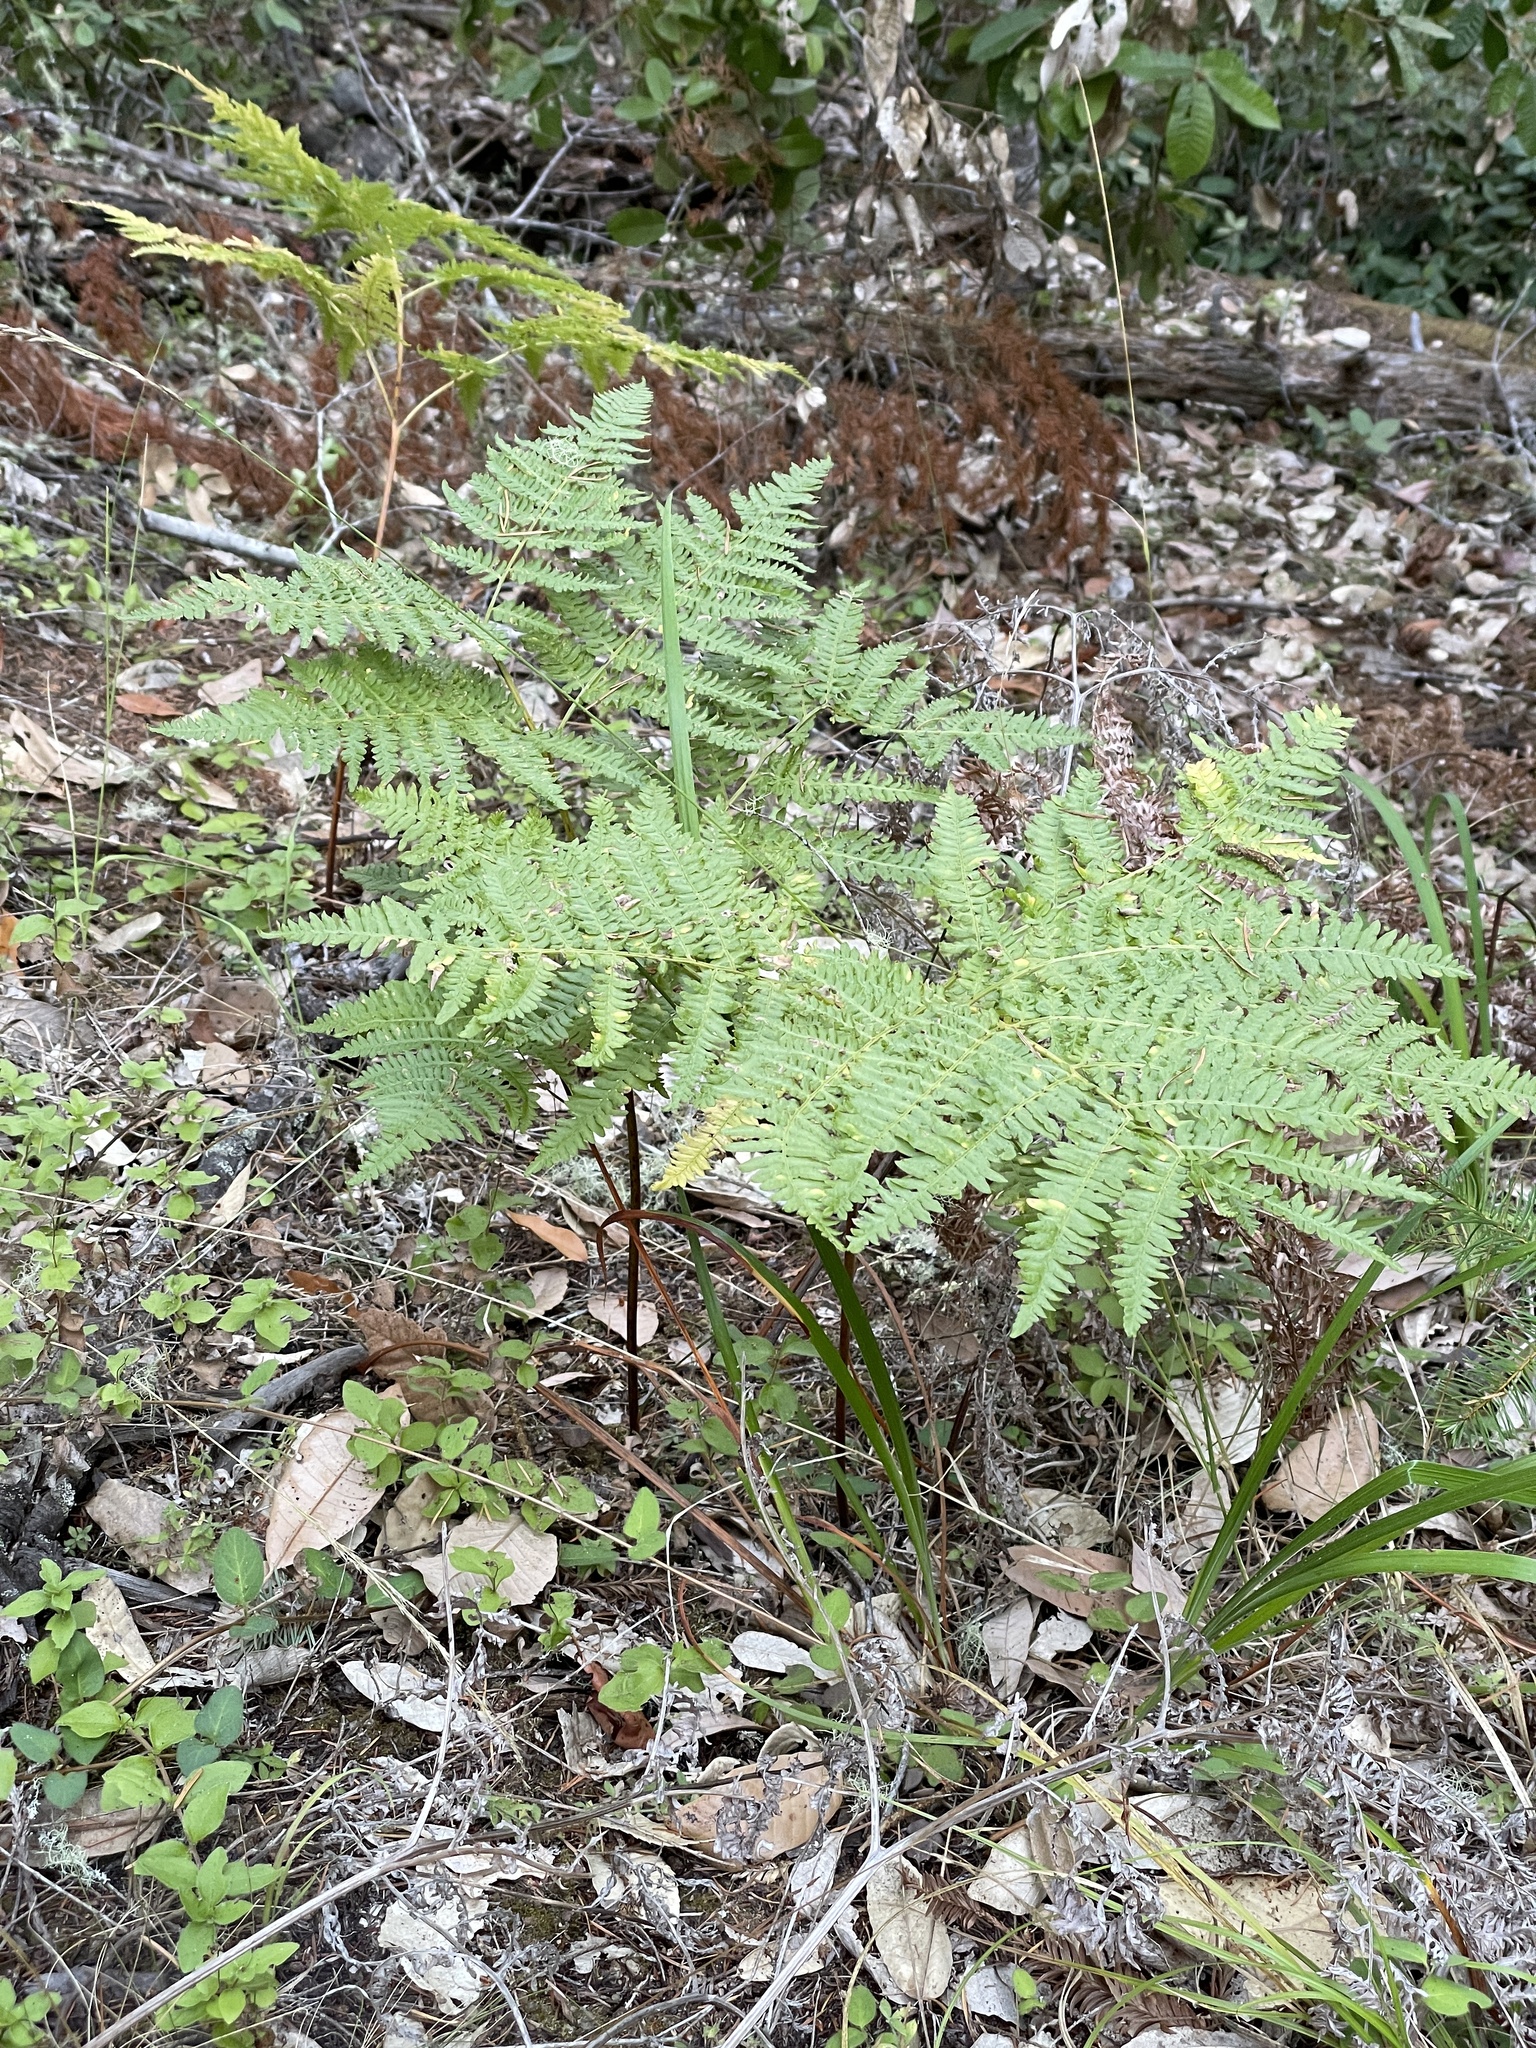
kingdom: Plantae
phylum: Tracheophyta
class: Polypodiopsida
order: Polypodiales
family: Dennstaedtiaceae
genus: Pteridium
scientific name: Pteridium aquilinum
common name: Bracken
